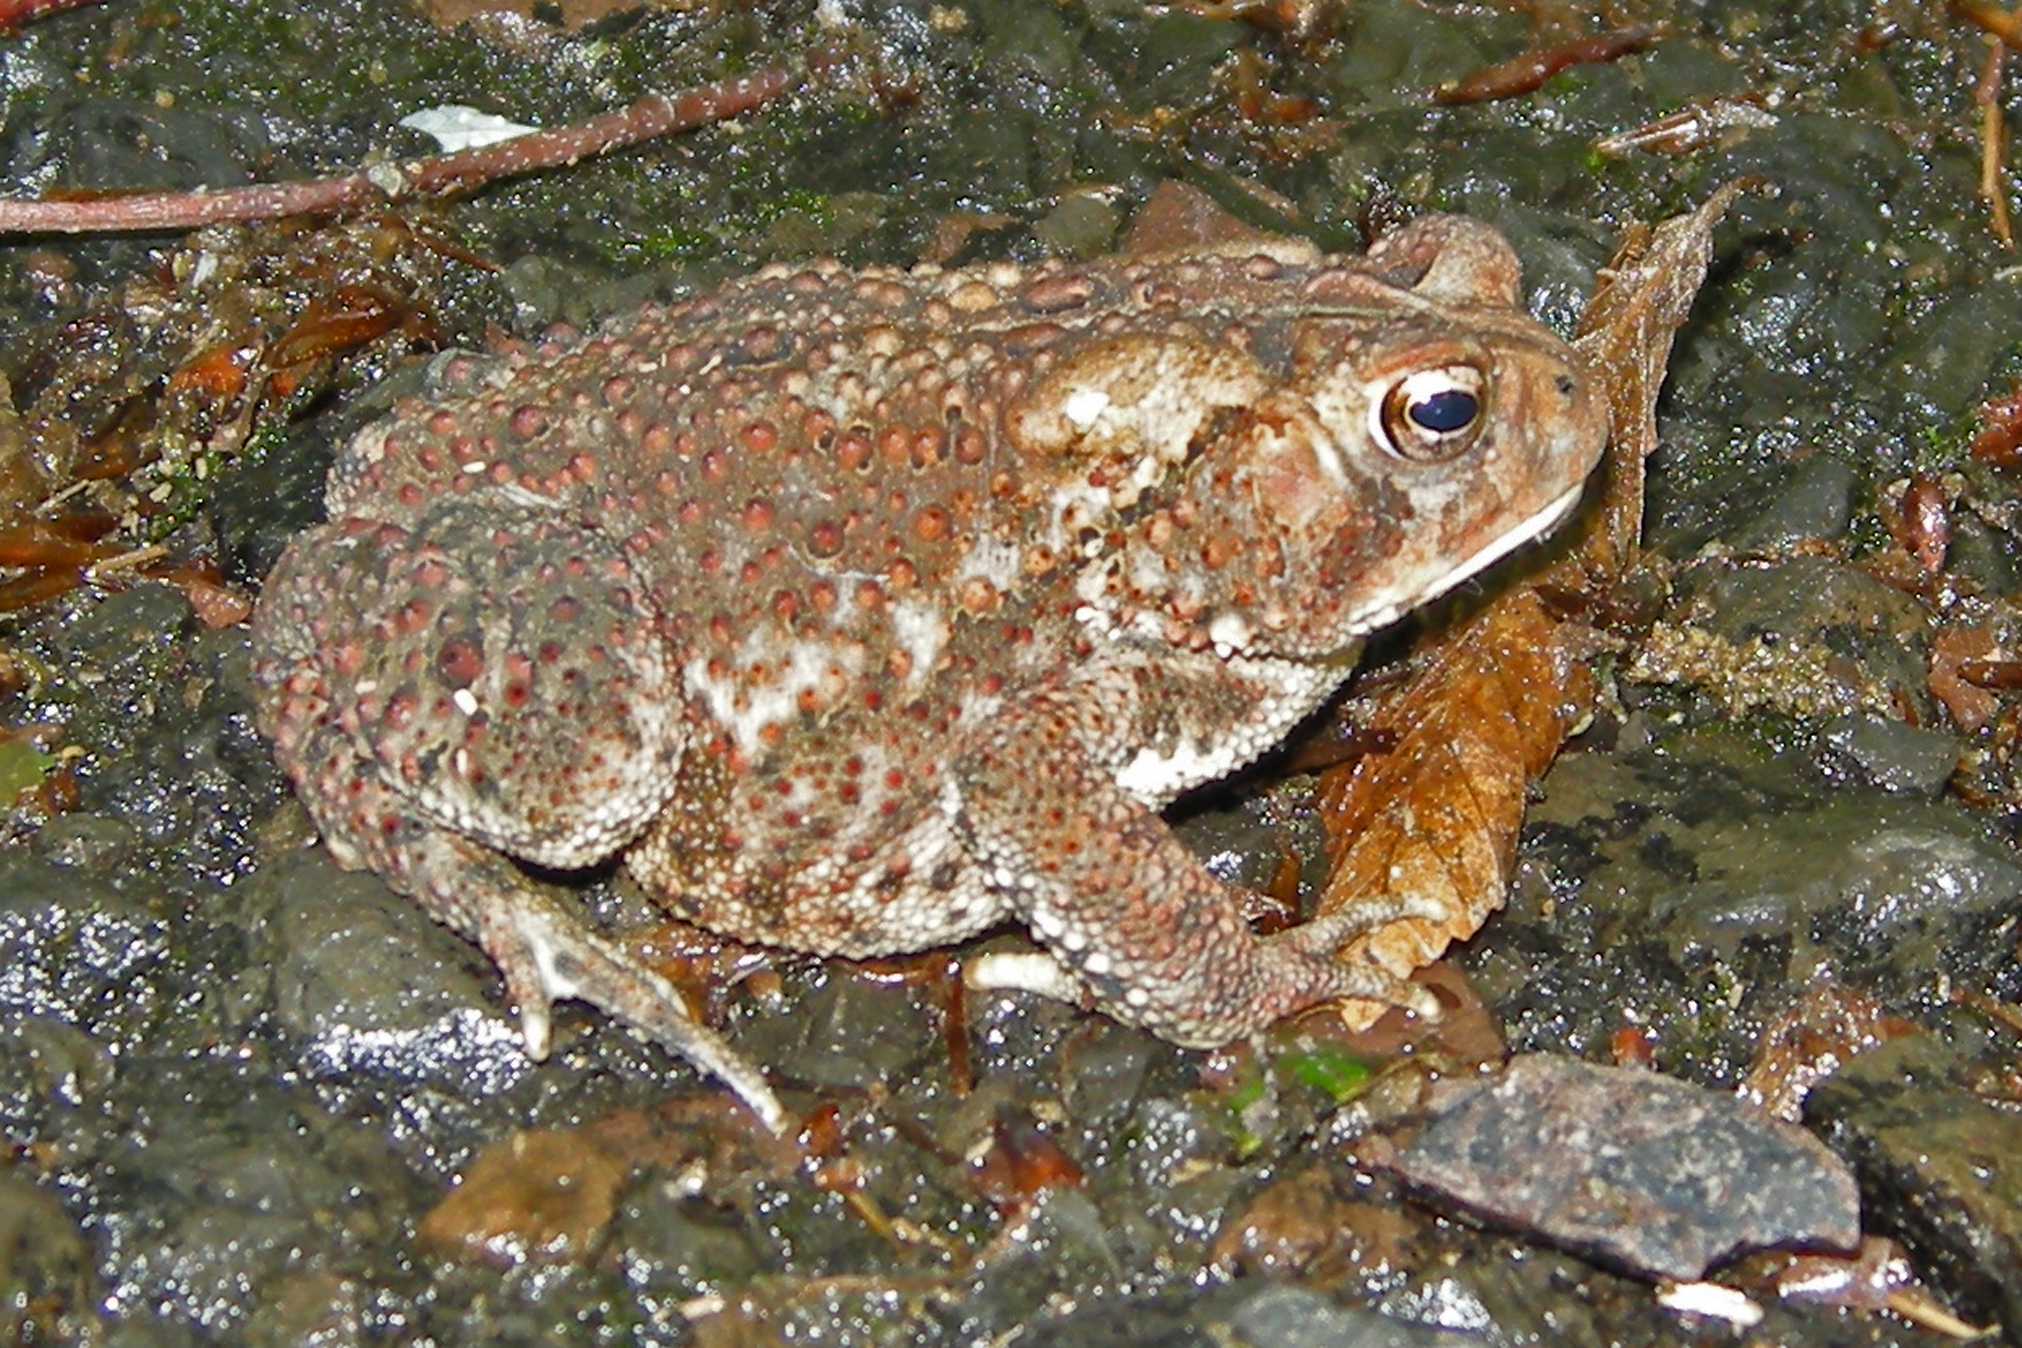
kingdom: Animalia
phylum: Chordata
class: Amphibia
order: Anura
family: Bufonidae
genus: Anaxyrus
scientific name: Anaxyrus americanus
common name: American toad
